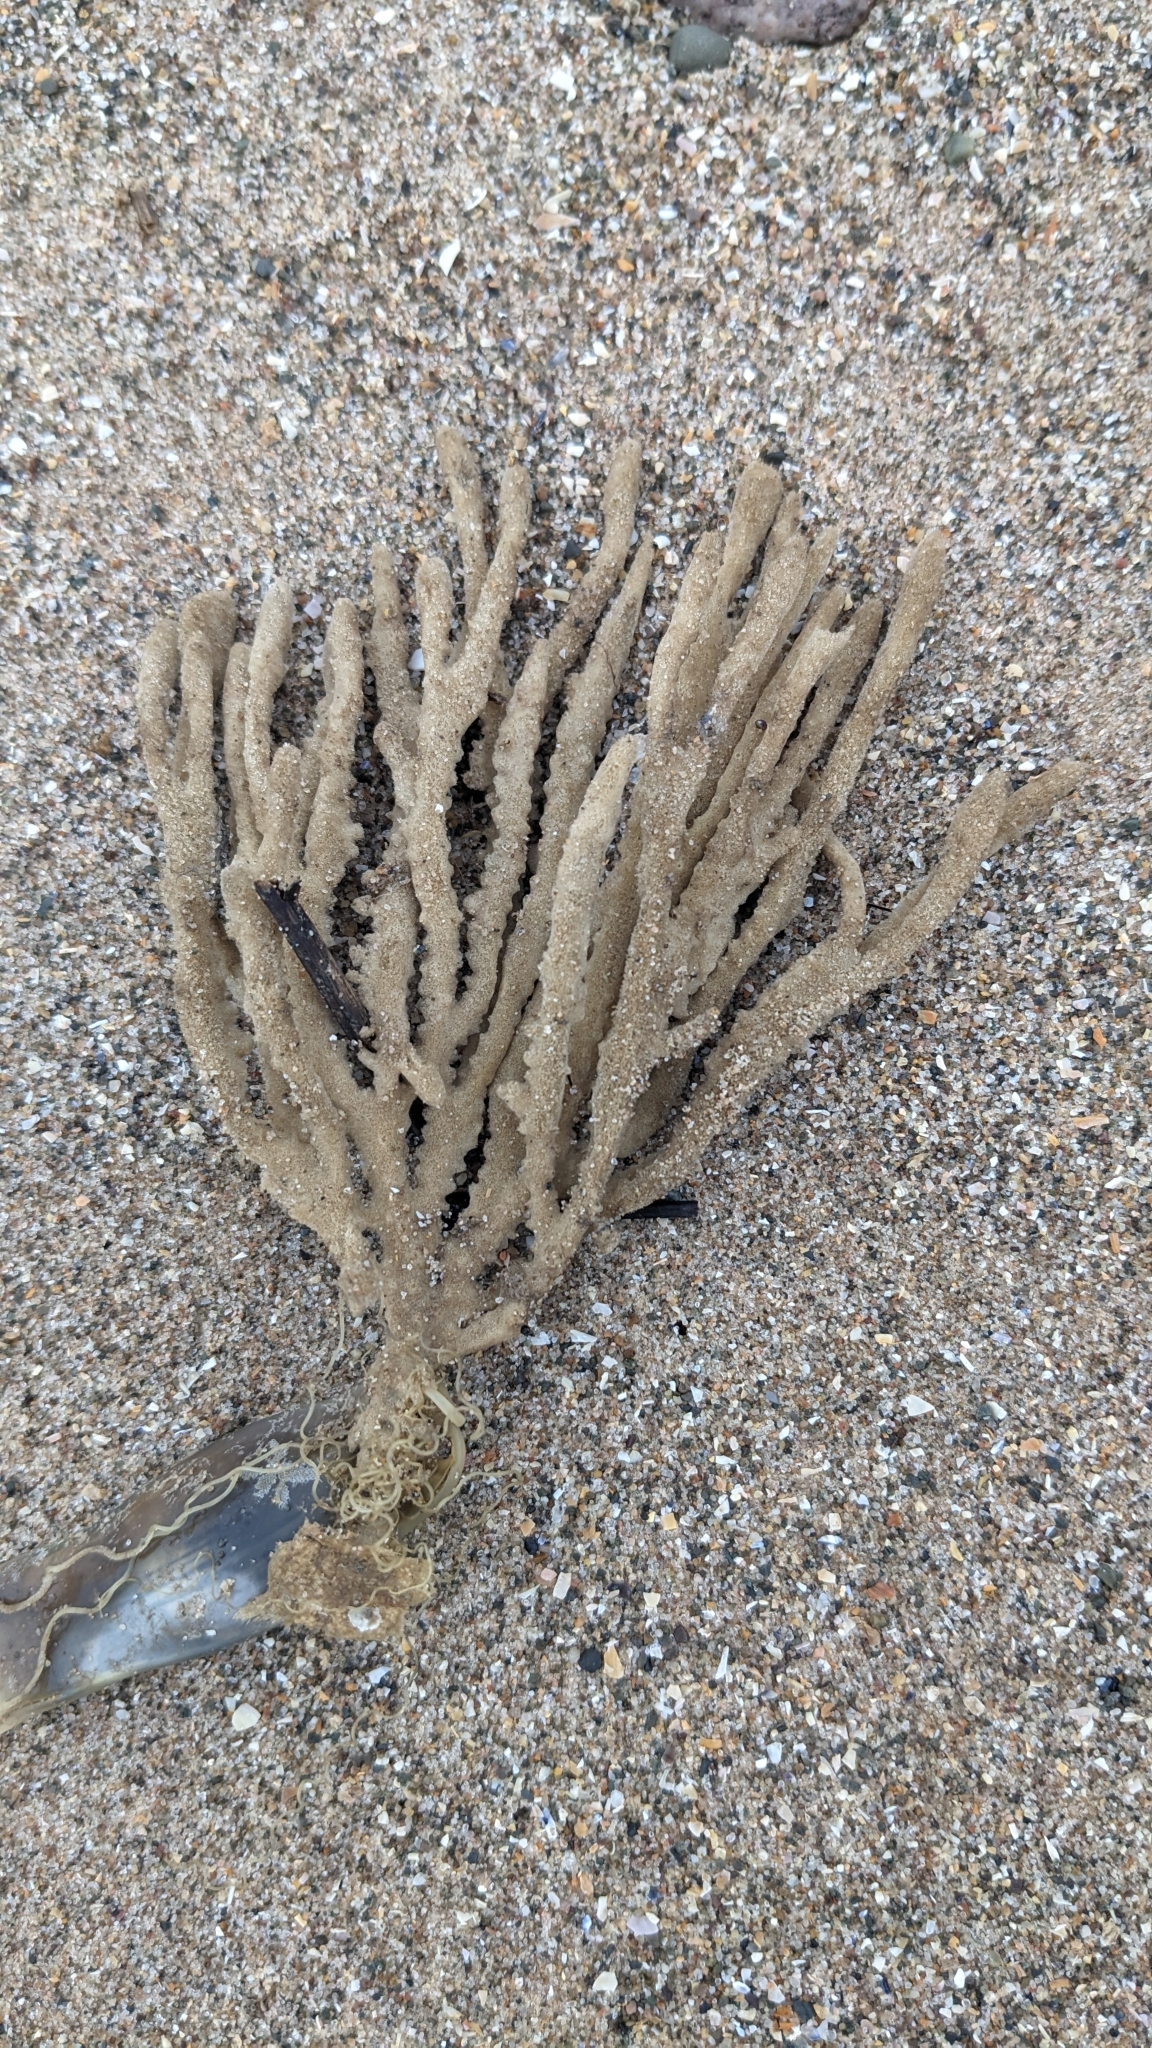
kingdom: Animalia
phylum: Porifera
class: Demospongiae
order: Haplosclerida
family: Chalinidae
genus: Haliclona
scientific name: Haliclona oculata
